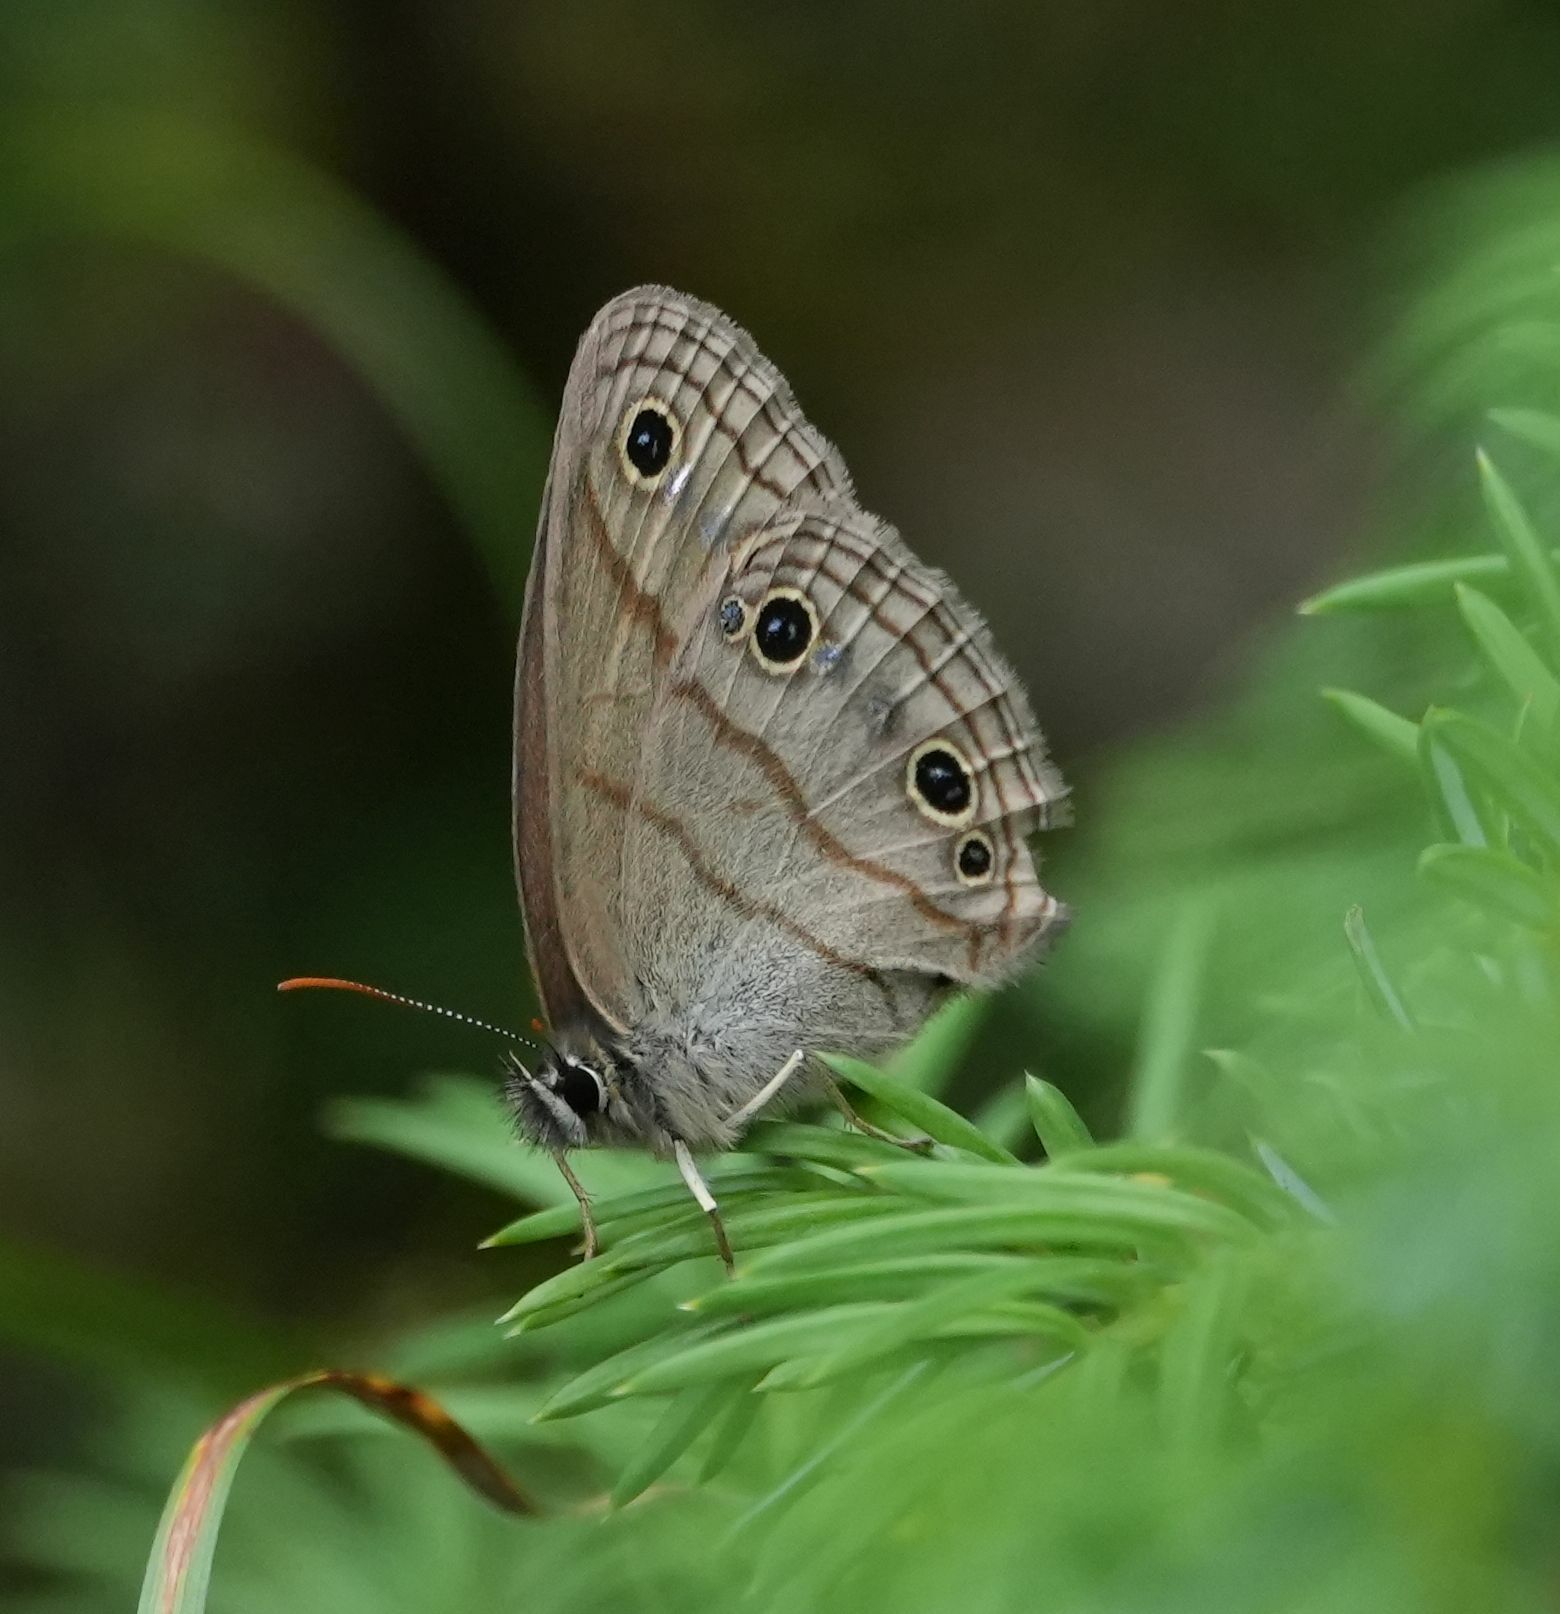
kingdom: Animalia
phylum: Arthropoda
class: Insecta
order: Lepidoptera
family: Nymphalidae
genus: Euptychia
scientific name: Euptychia cymela
